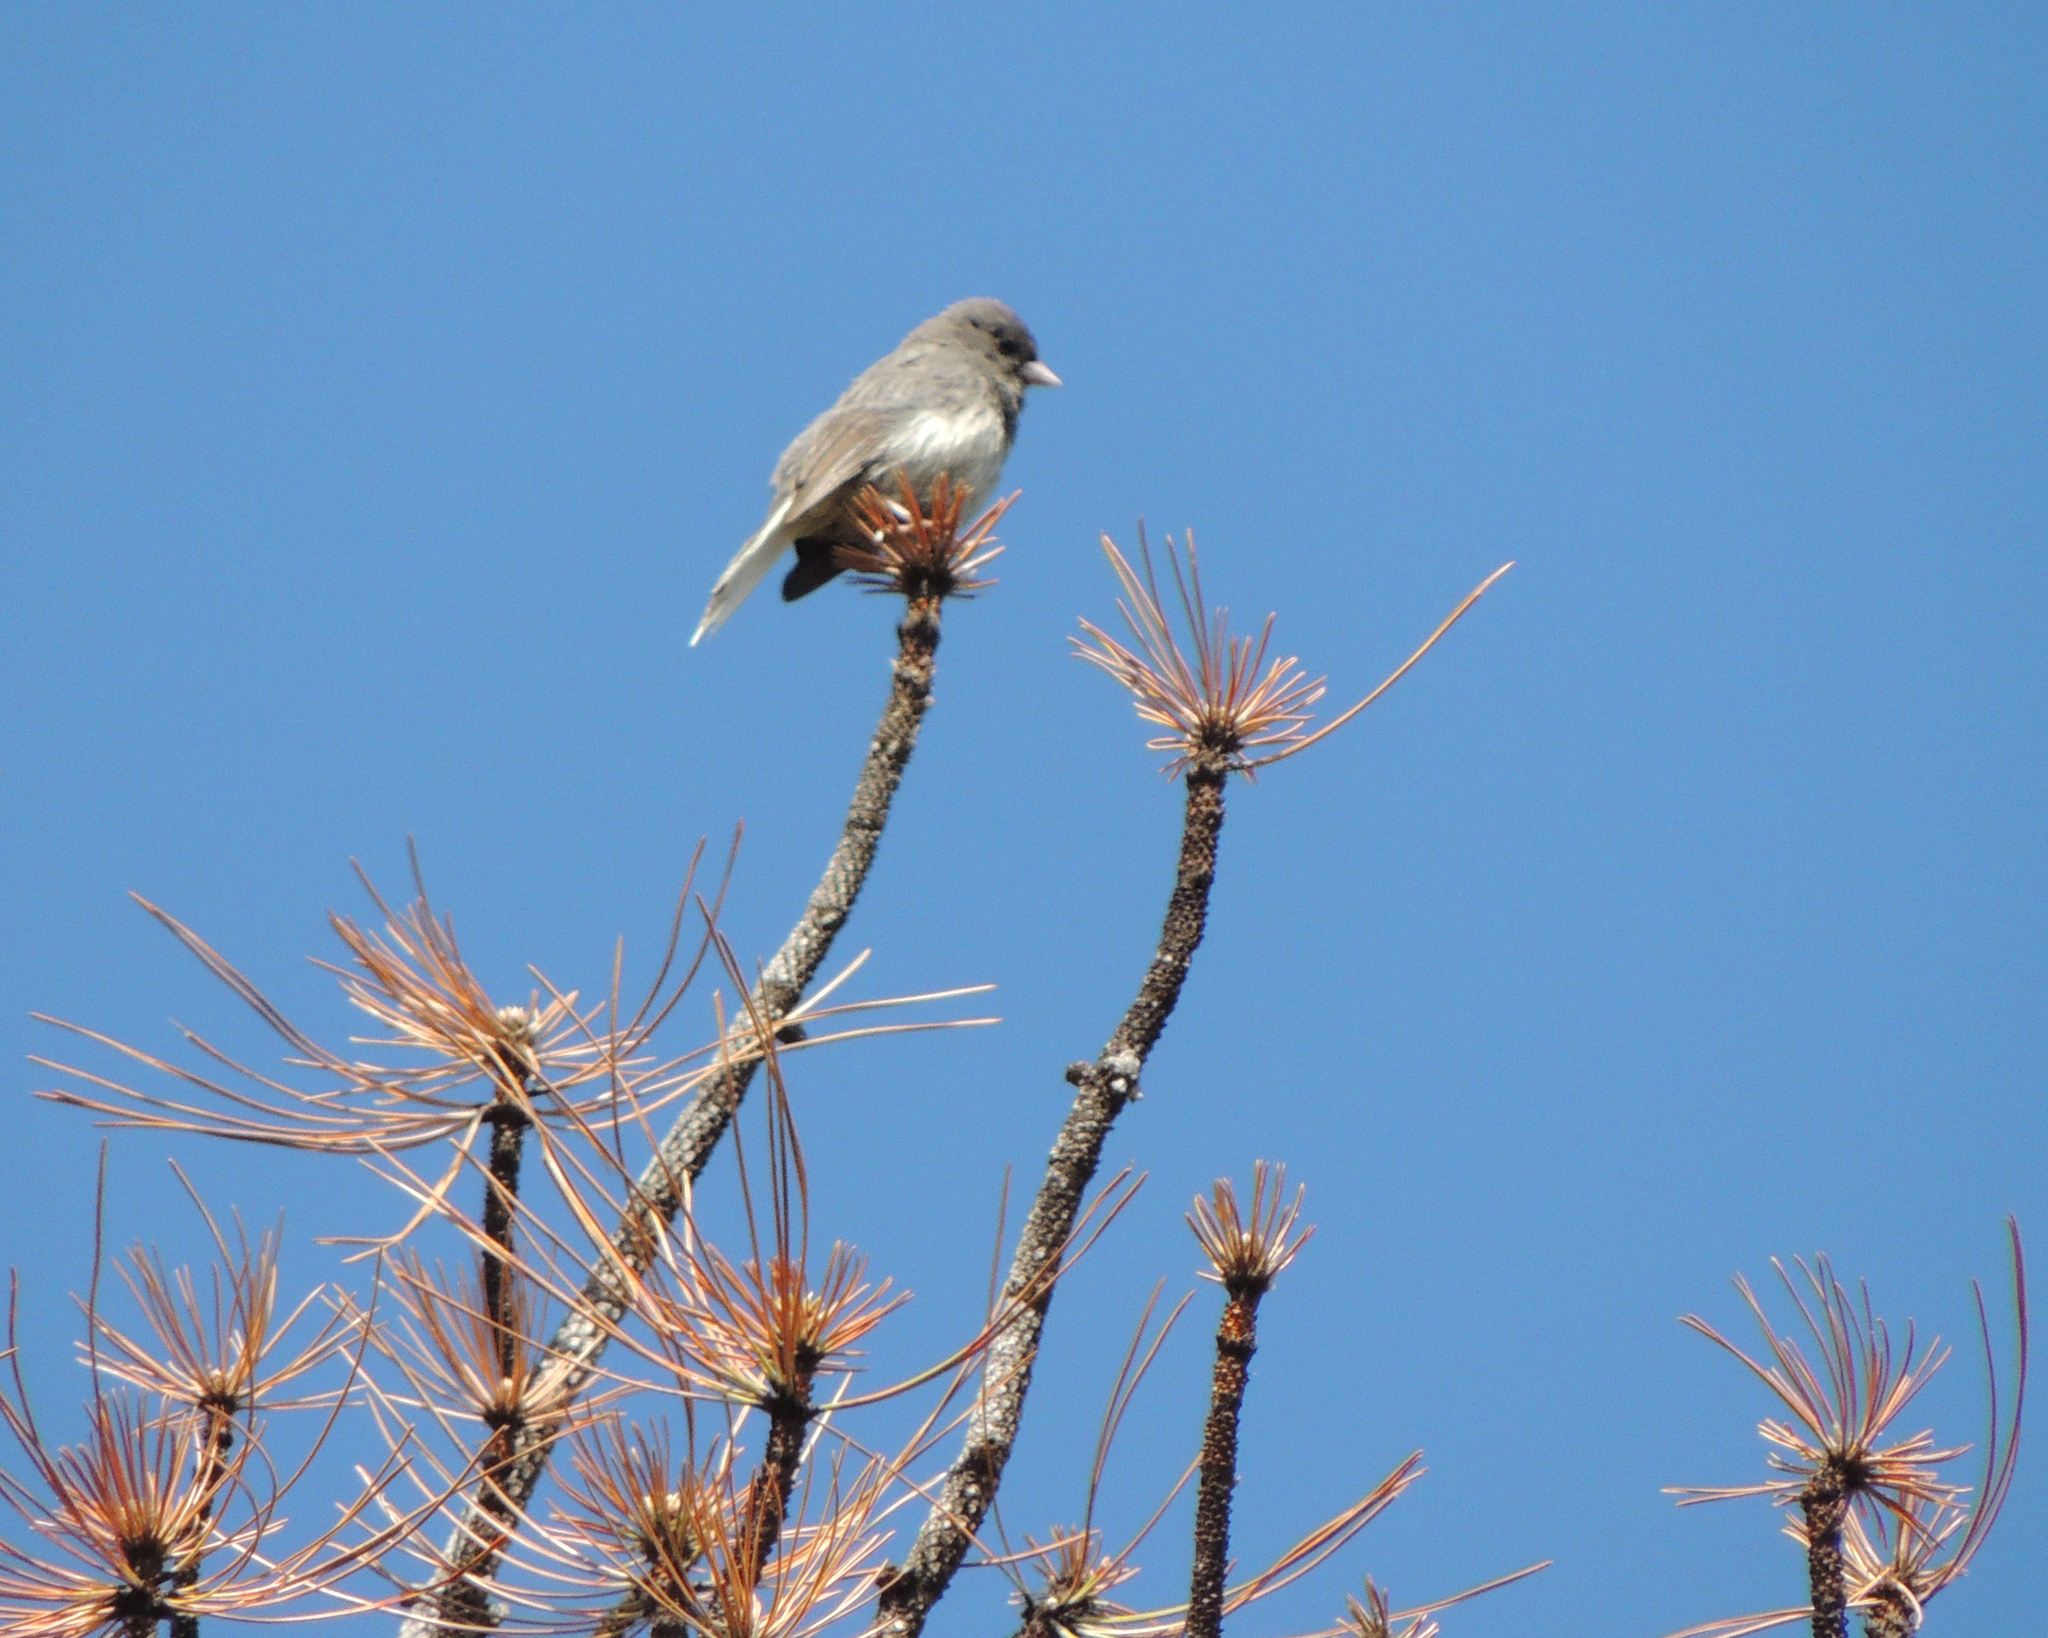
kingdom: Animalia
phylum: Chordata
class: Aves
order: Passeriformes
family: Passerellidae
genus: Junco
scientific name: Junco hyemalis
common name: Dark-eyed junco
